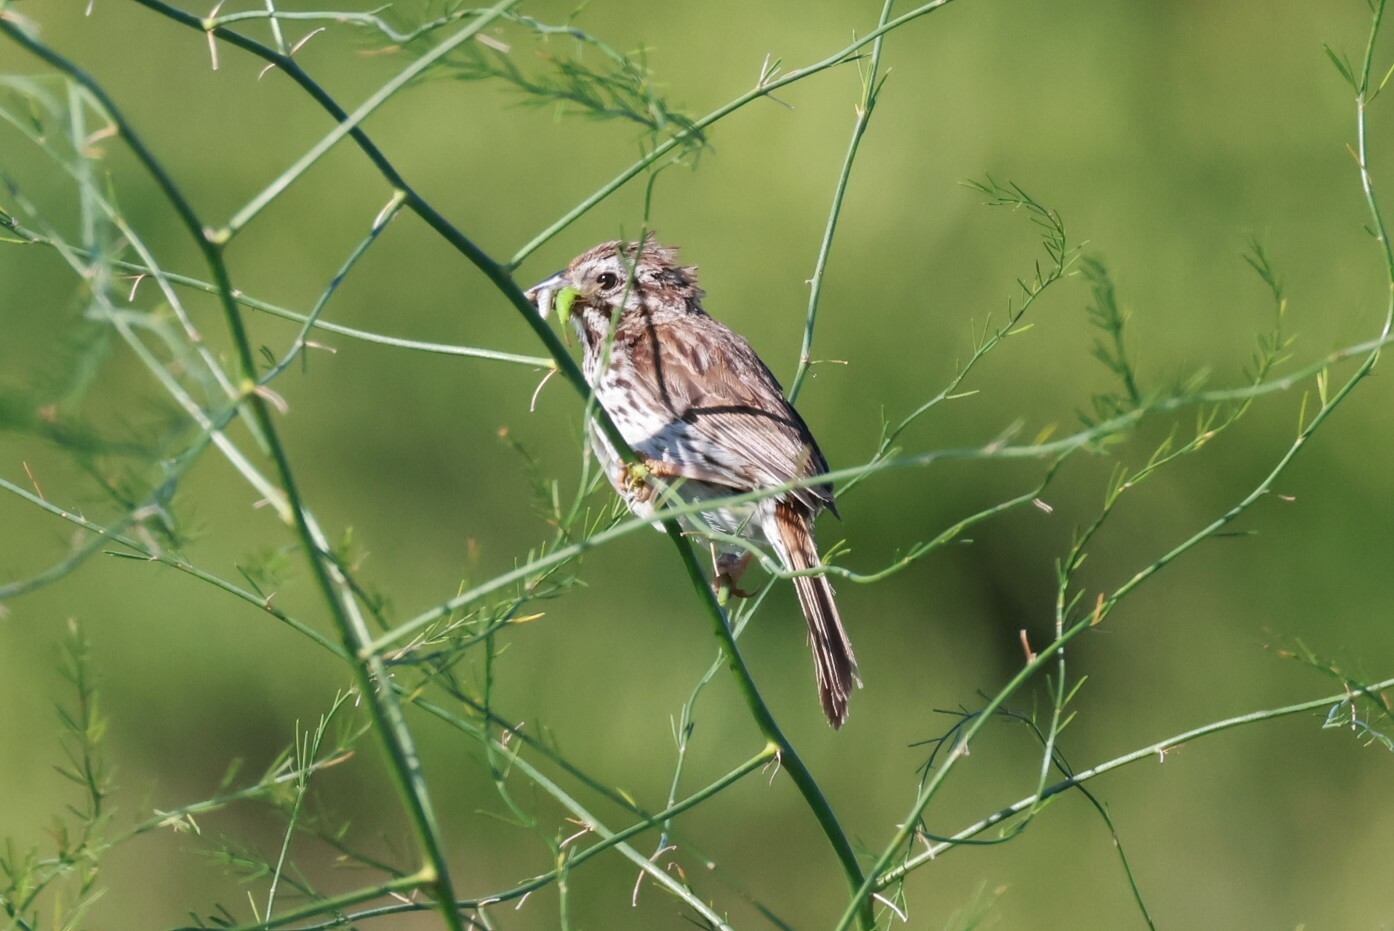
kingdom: Animalia
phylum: Chordata
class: Aves
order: Passeriformes
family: Passerellidae
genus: Melospiza
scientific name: Melospiza melodia
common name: Song sparrow
